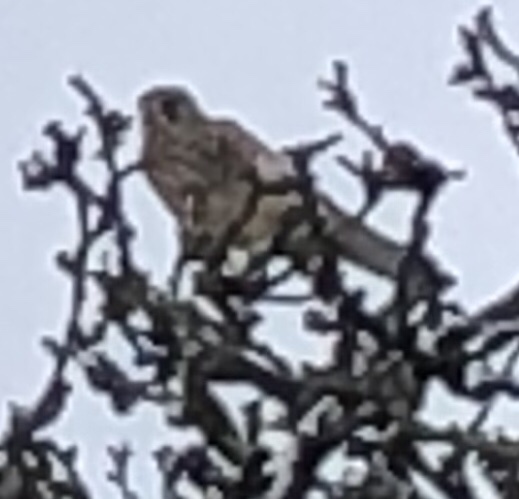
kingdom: Animalia
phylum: Chordata
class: Aves
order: Falconiformes
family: Falconidae
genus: Falco
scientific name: Falco tinnunculus
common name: Common kestrel
